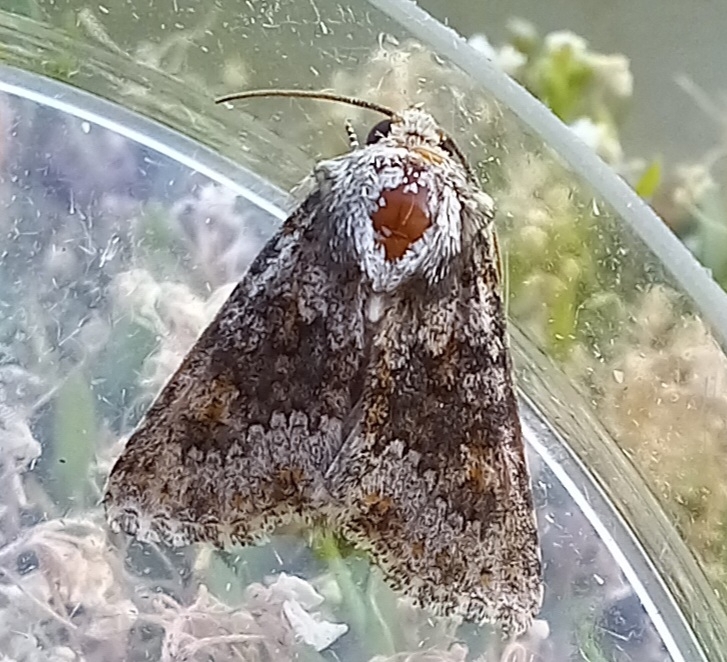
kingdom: Animalia
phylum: Arthropoda
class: Insecta
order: Lepidoptera
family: Noctuidae
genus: Hecatera
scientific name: Hecatera dysodea
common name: Small ranunculus
